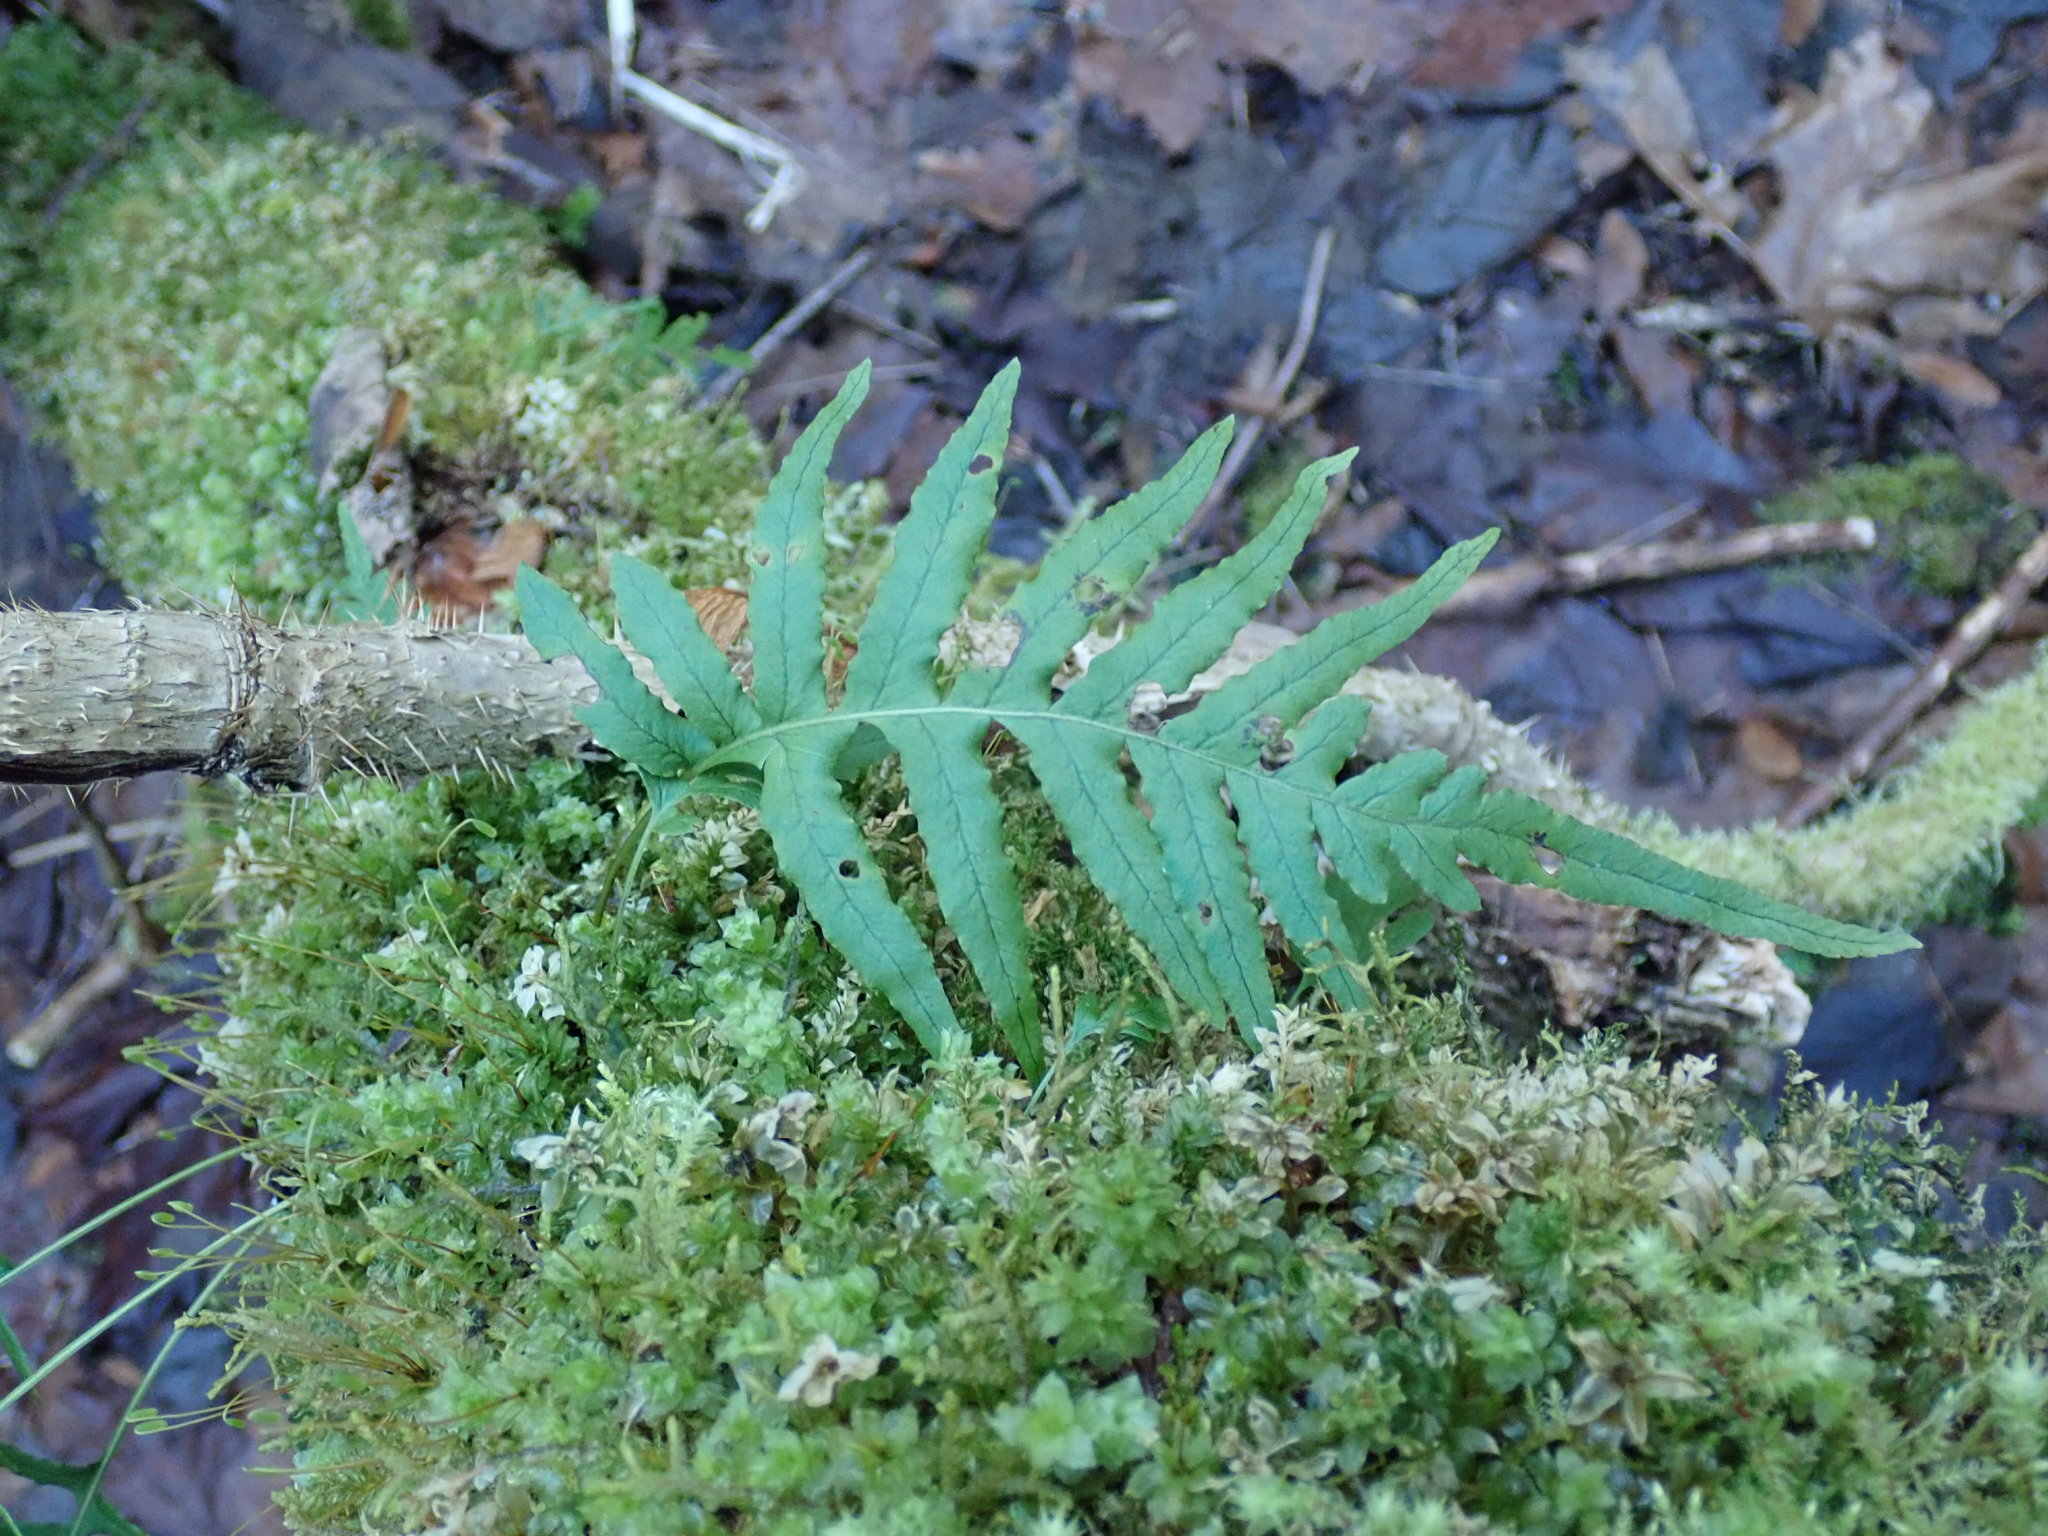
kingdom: Plantae
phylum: Tracheophyta
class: Polypodiopsida
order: Polypodiales
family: Polypodiaceae
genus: Polypodium
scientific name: Polypodium glycyrrhiza
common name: Licorice fern
